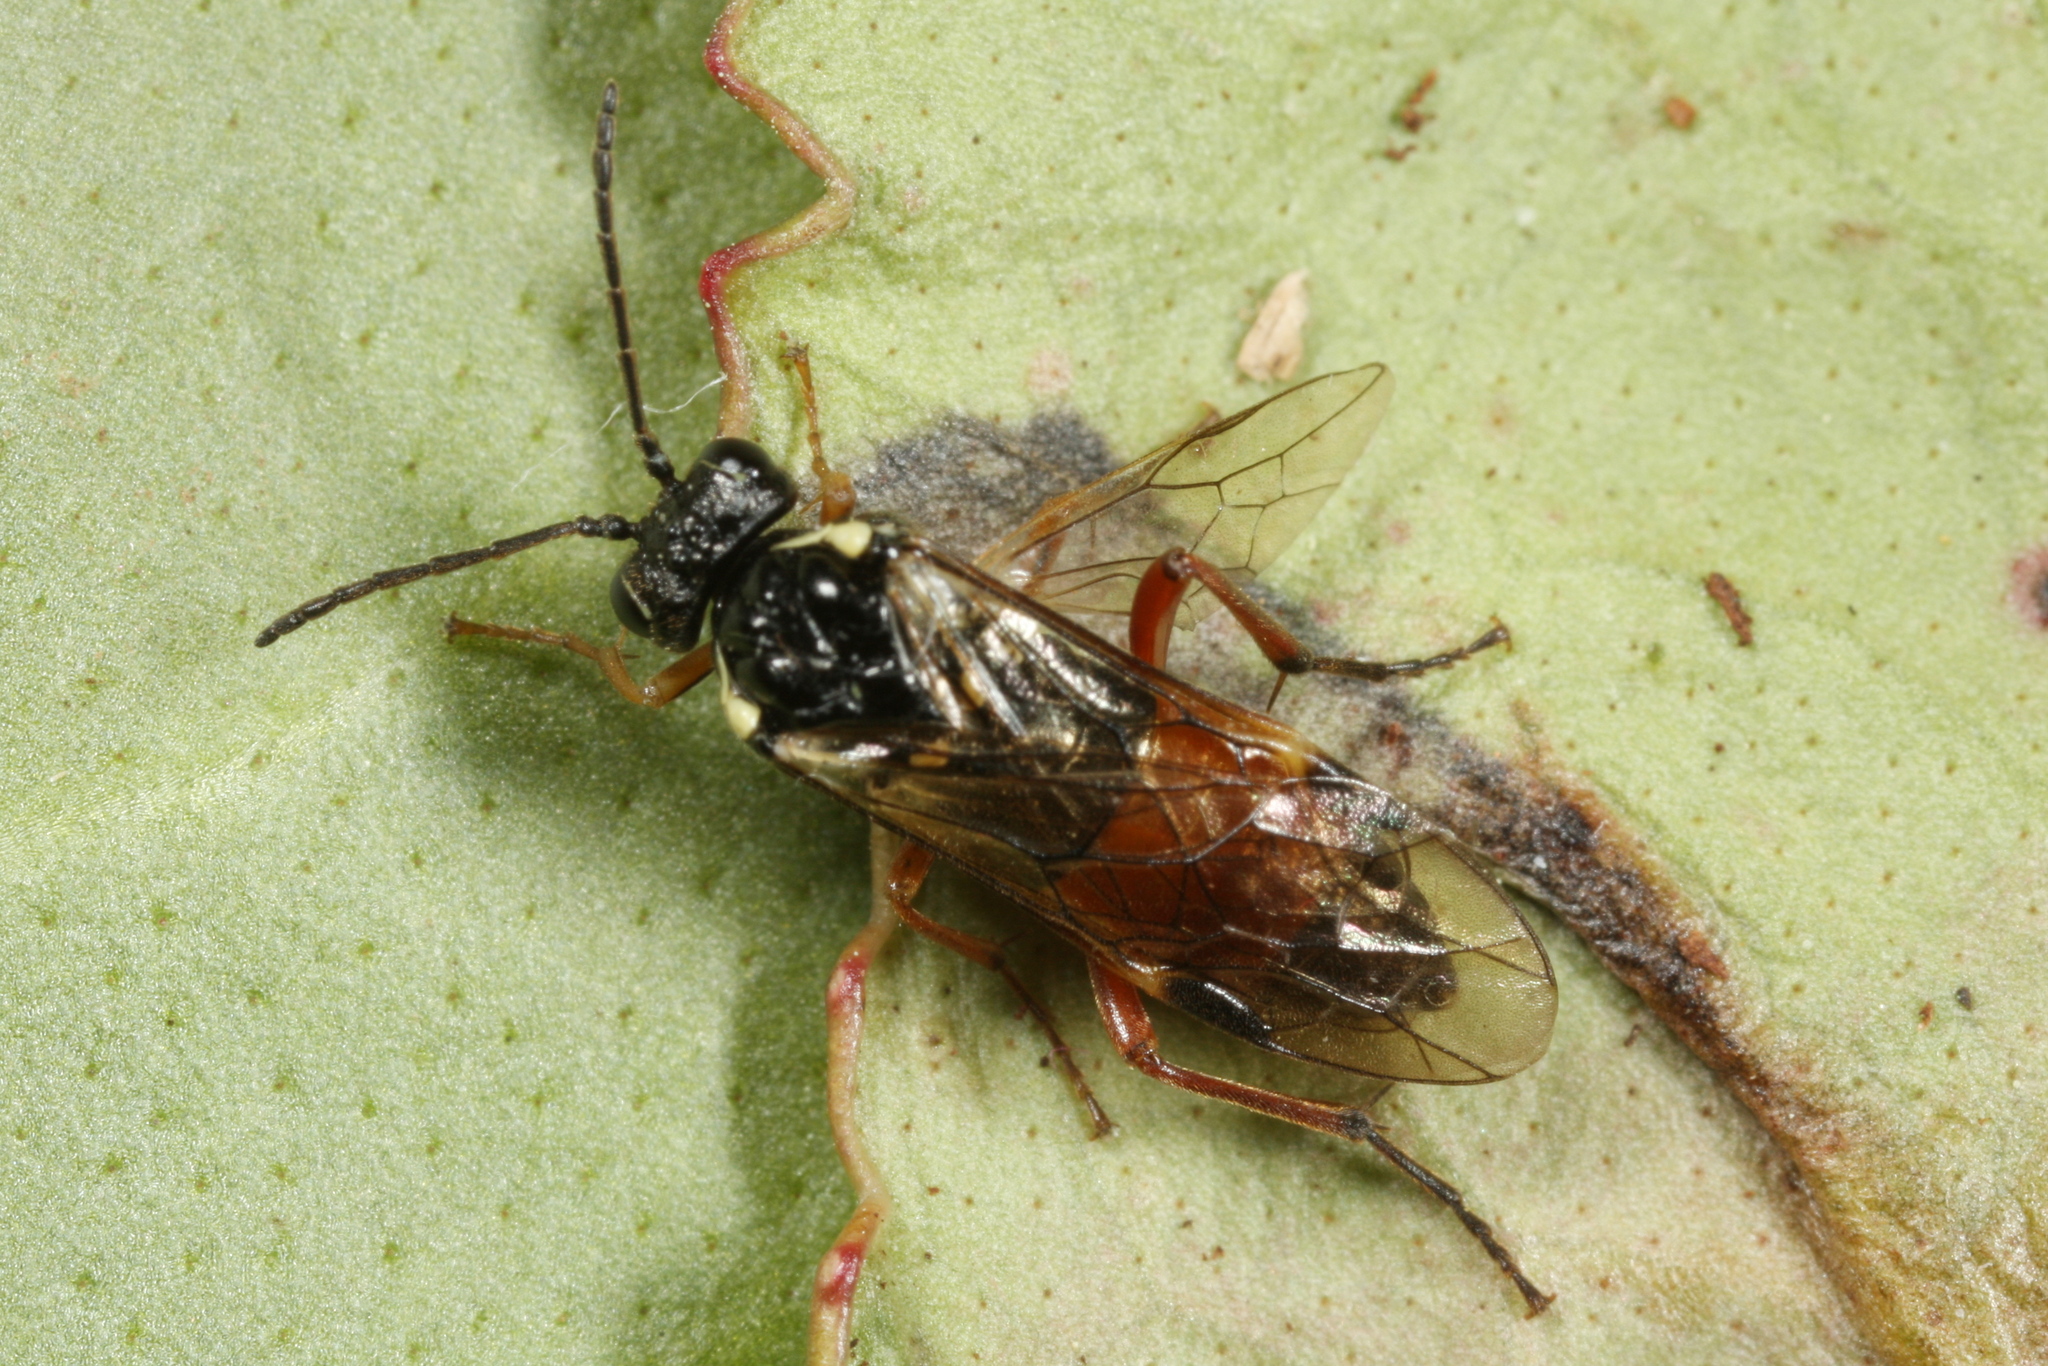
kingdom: Animalia
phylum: Arthropoda
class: Insecta
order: Hymenoptera
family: Tenthredinidae
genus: Aglaostigma
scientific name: Aglaostigma aucupariae
